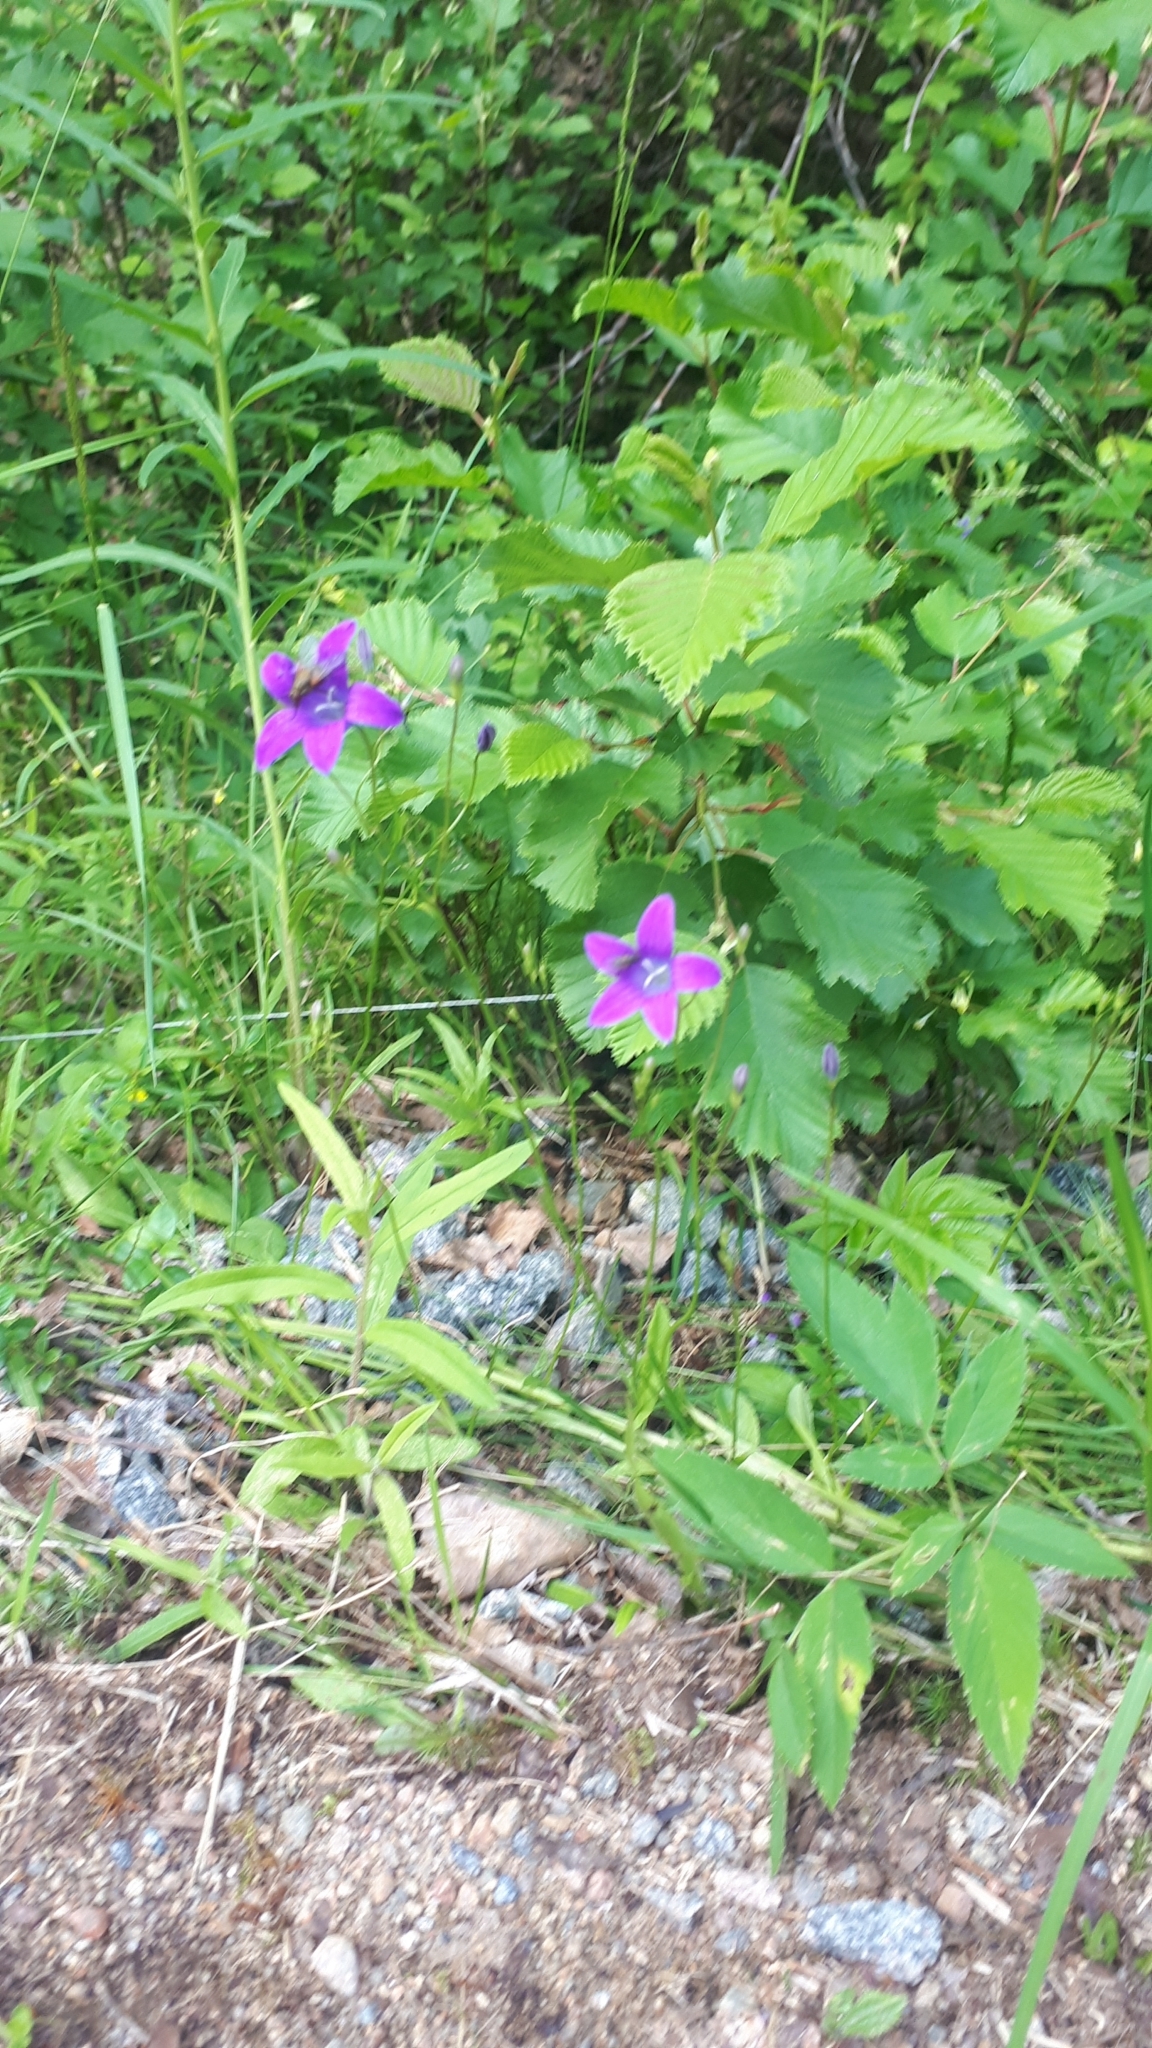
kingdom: Plantae
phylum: Tracheophyta
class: Magnoliopsida
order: Asterales
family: Campanulaceae
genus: Campanula
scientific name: Campanula patula
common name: Spreading bellflower
